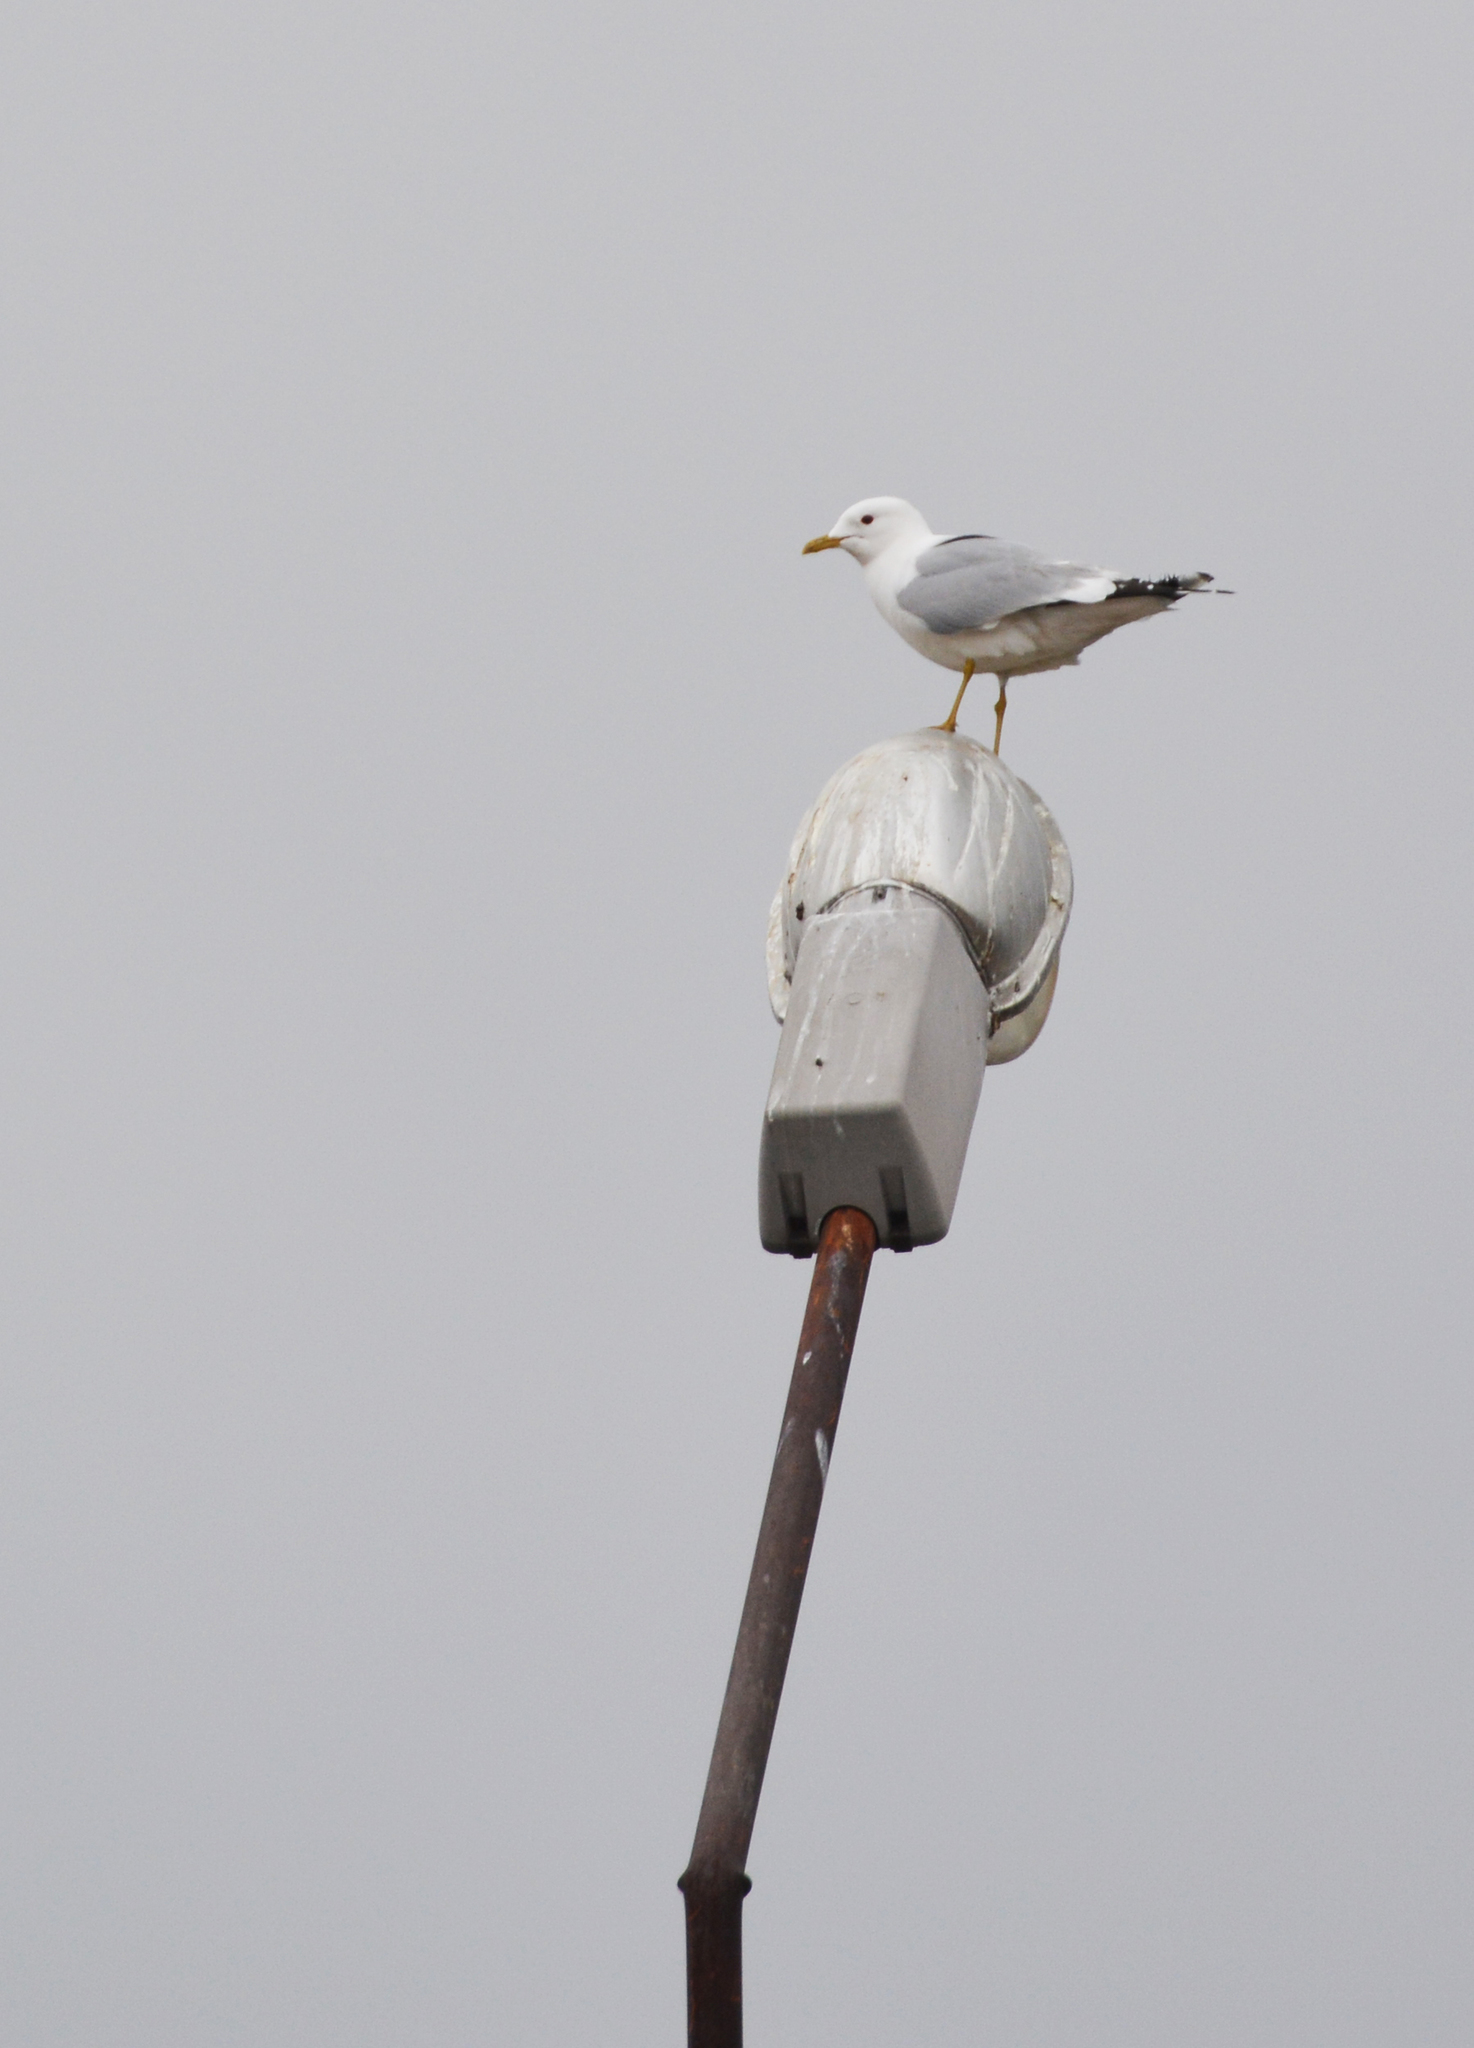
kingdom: Animalia
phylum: Chordata
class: Aves
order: Charadriiformes
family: Laridae
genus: Larus
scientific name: Larus canus
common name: Mew gull
